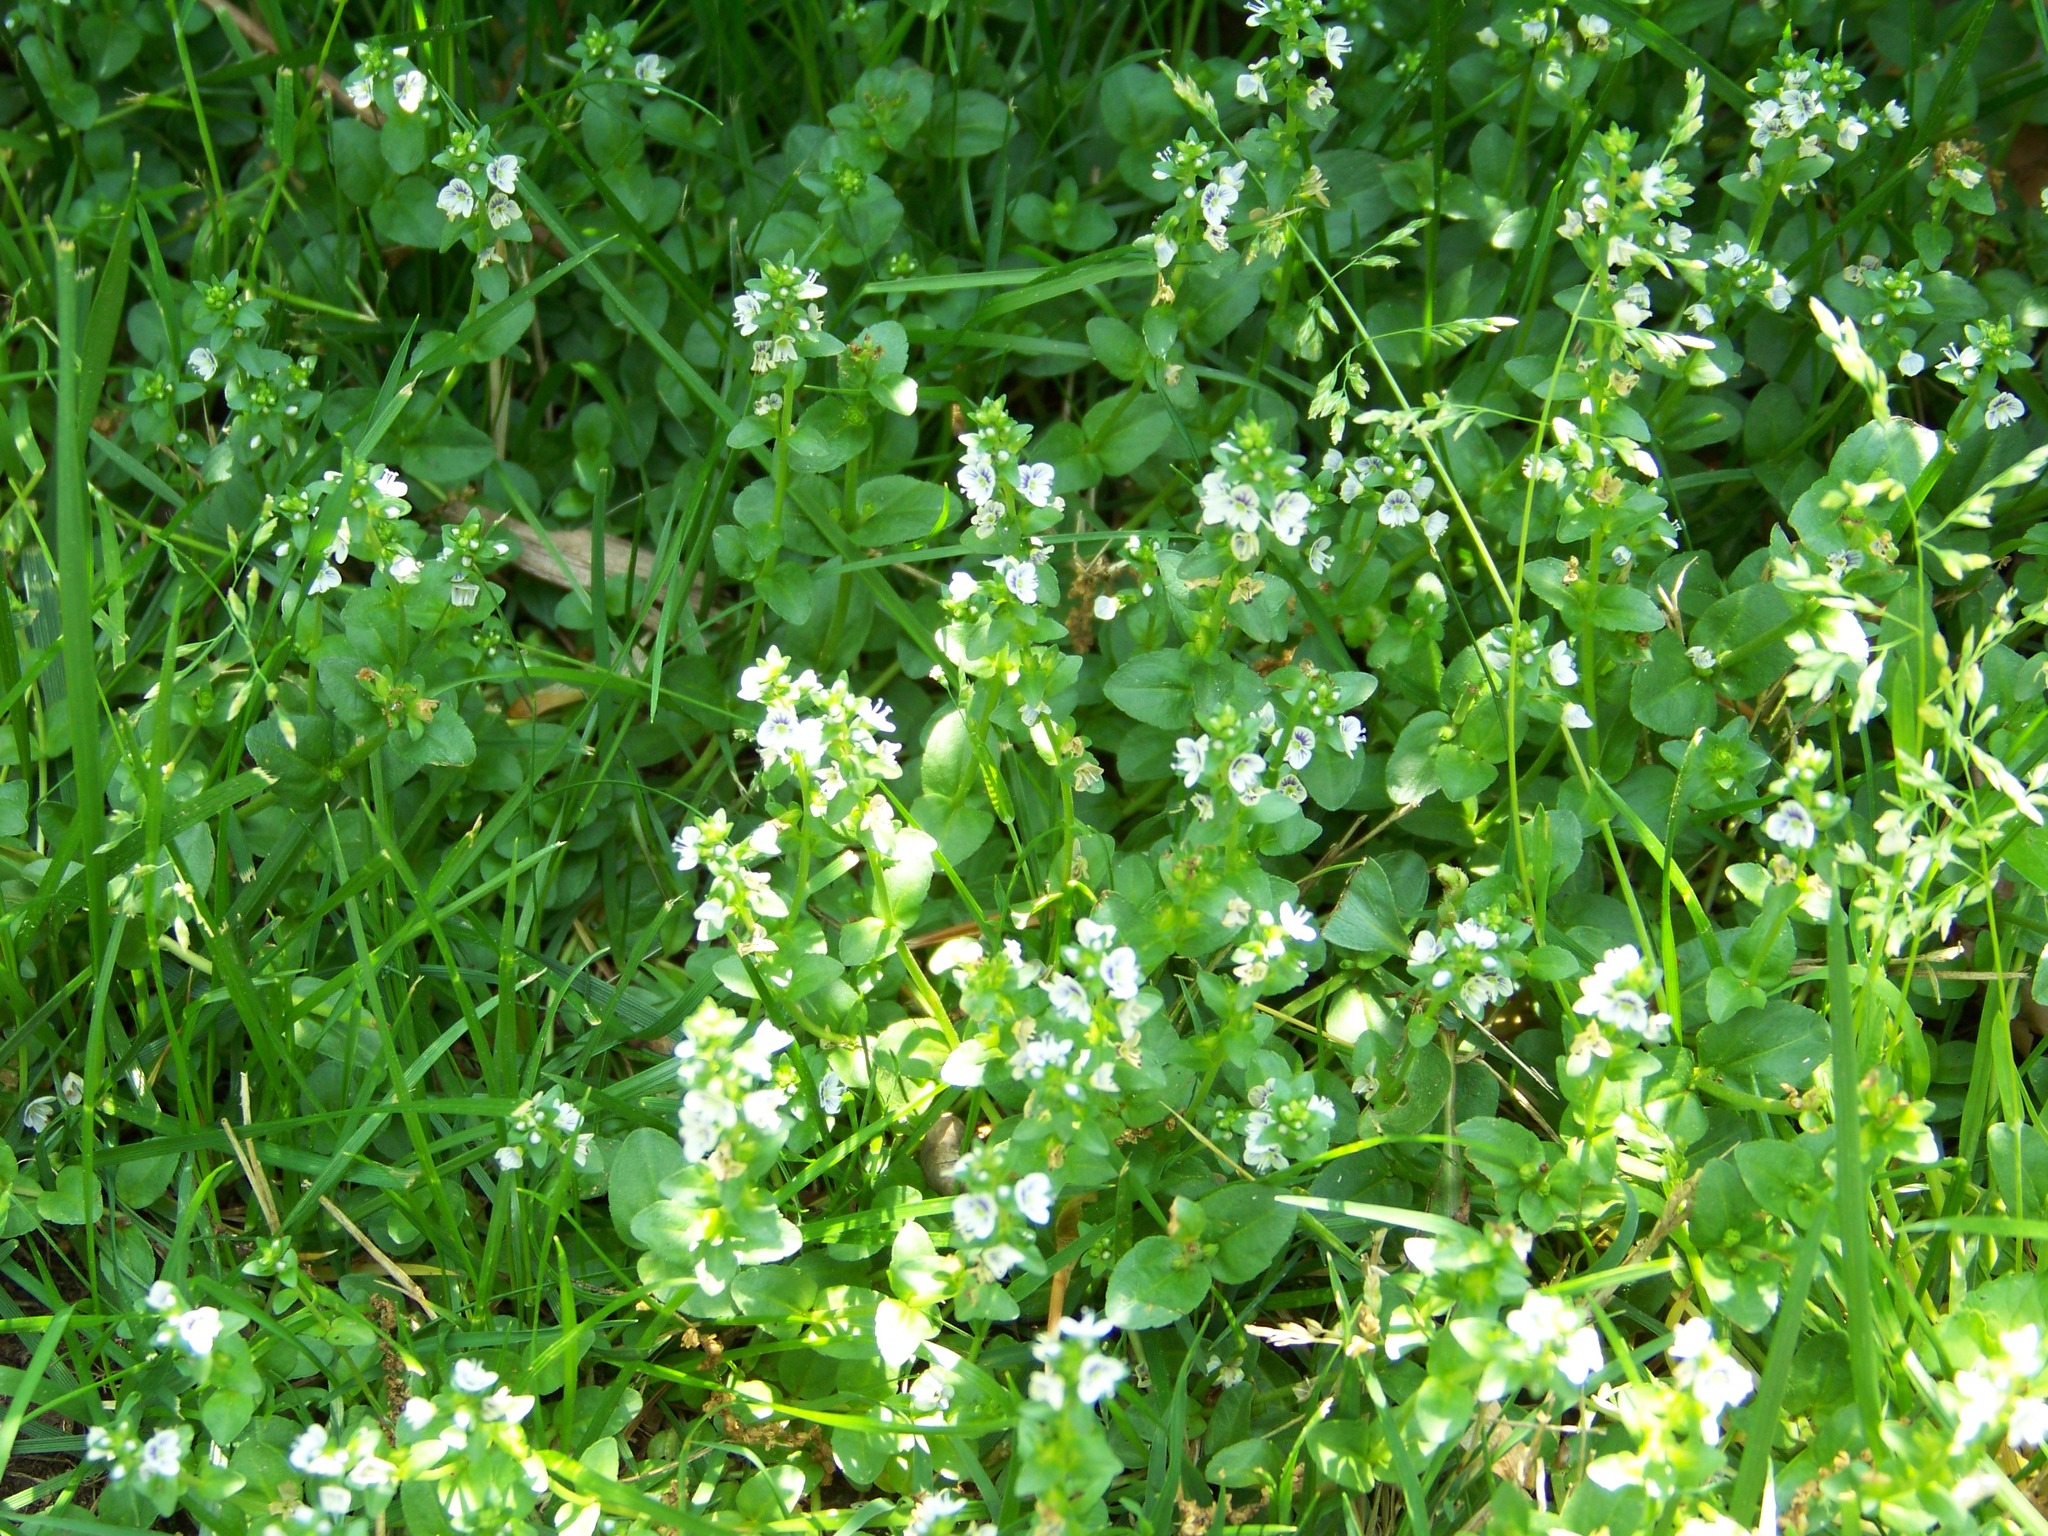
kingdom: Plantae
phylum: Tracheophyta
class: Magnoliopsida
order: Lamiales
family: Plantaginaceae
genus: Veronica
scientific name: Veronica serpyllifolia
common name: Thyme-leaved speedwell
